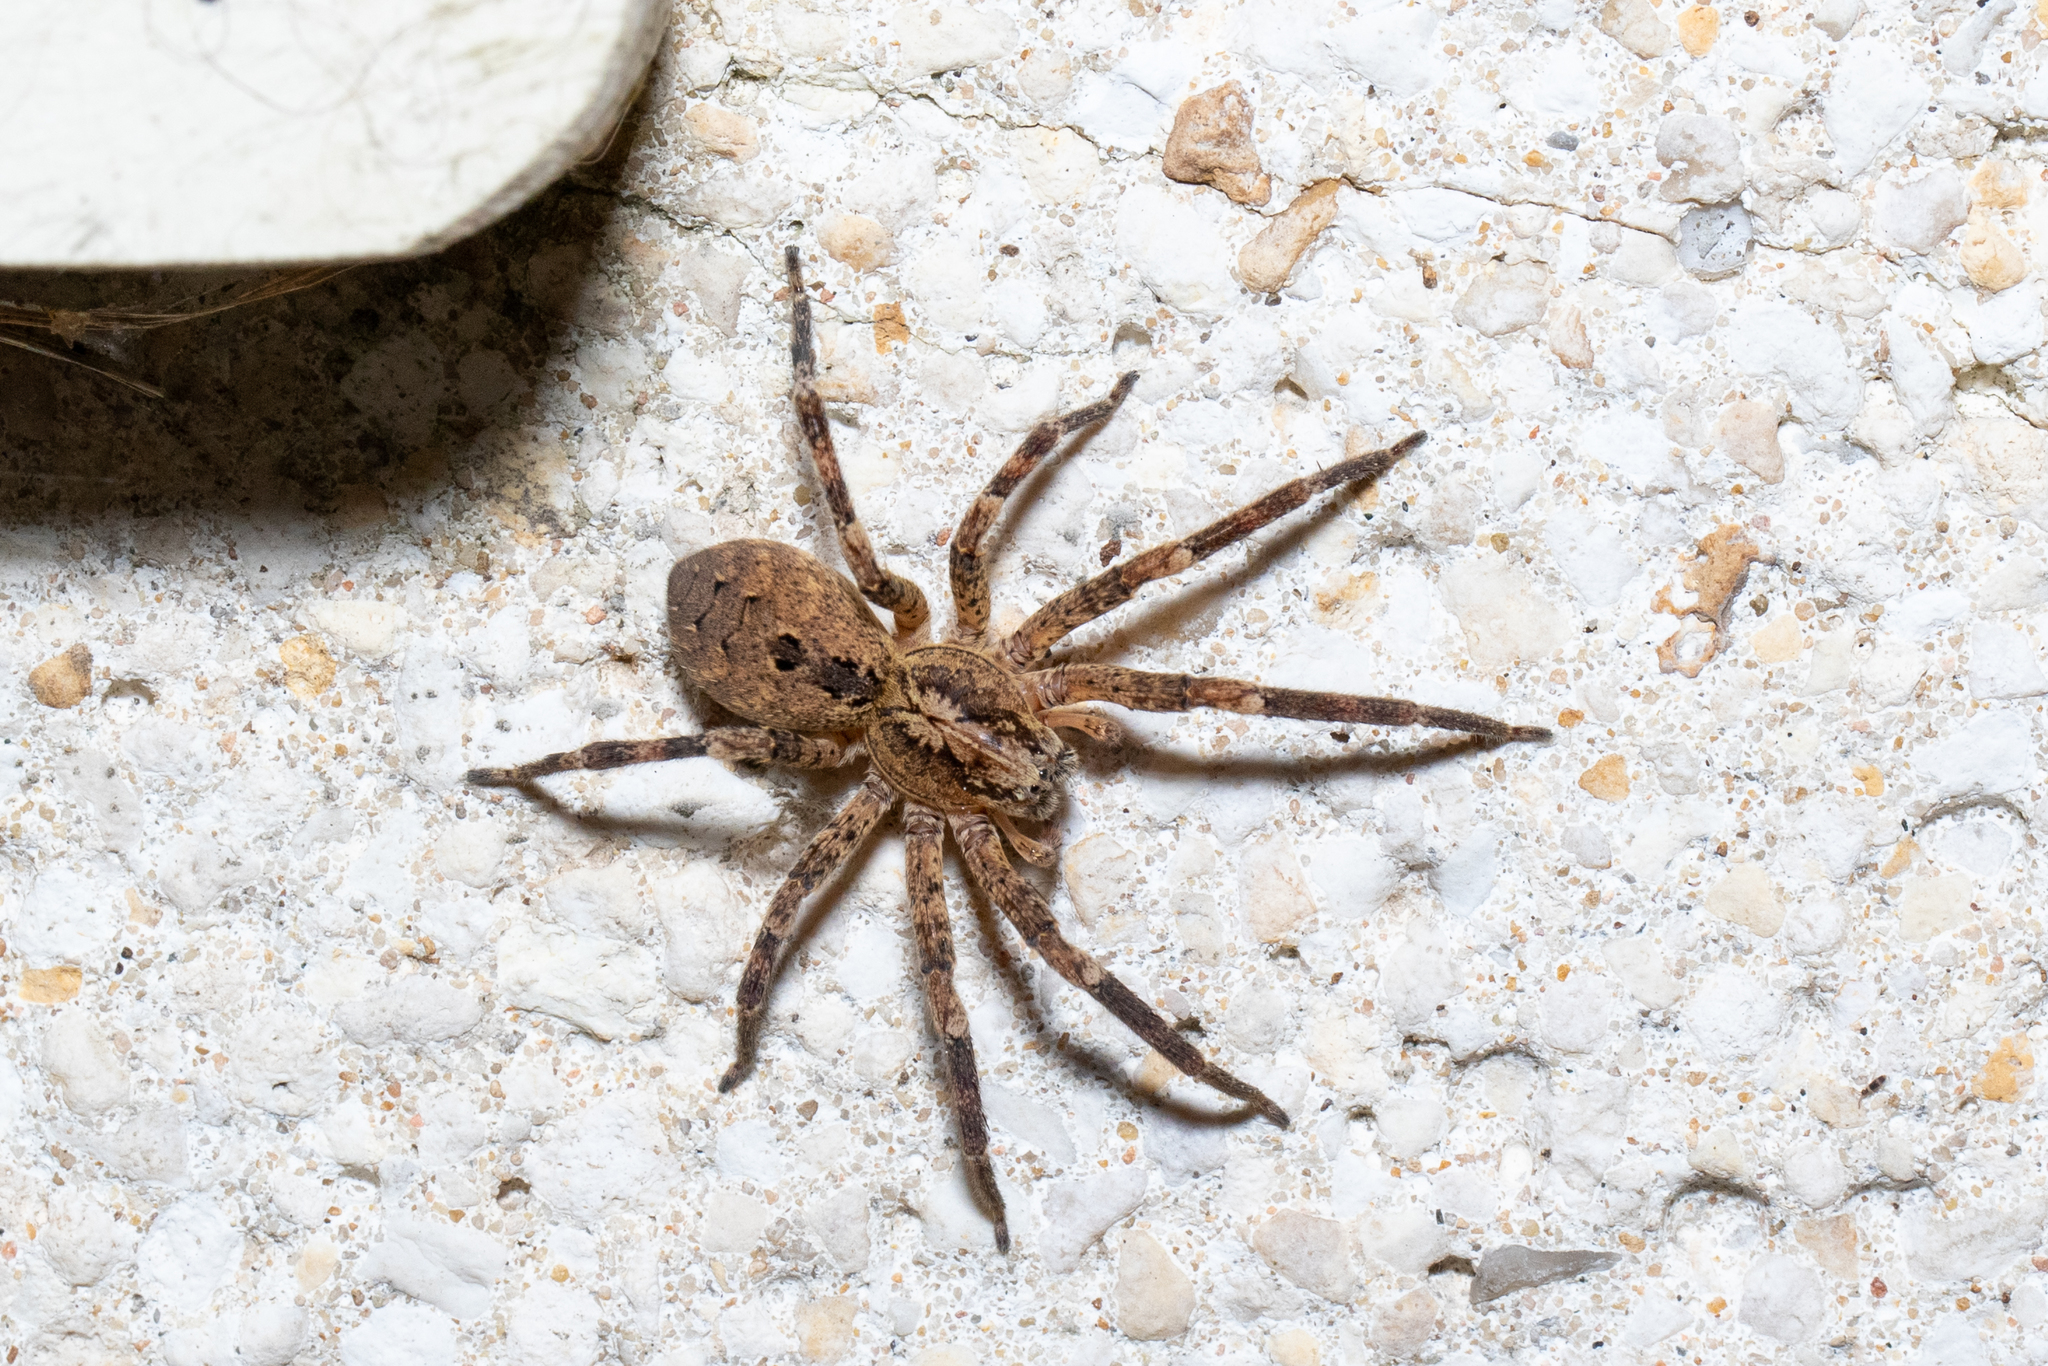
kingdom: Animalia
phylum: Arthropoda
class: Arachnida
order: Araneae
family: Zoropsidae
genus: Zoropsis
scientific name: Zoropsis spinimana
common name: Zoropsid spider
